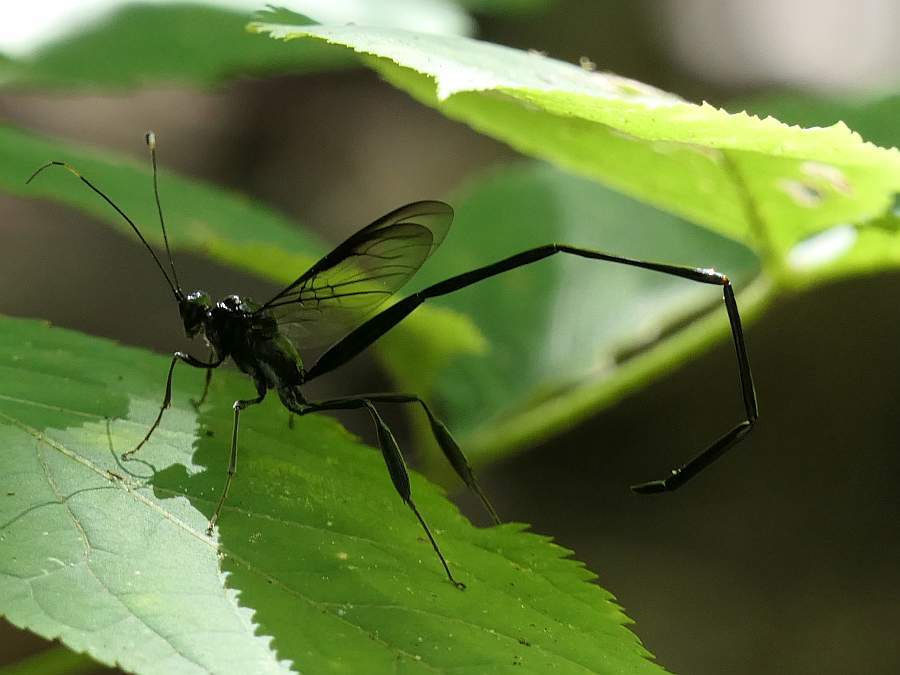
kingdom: Animalia
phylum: Arthropoda
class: Insecta
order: Hymenoptera
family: Pelecinidae
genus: Pelecinus
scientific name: Pelecinus polyturator
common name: American pelecinid wasp
